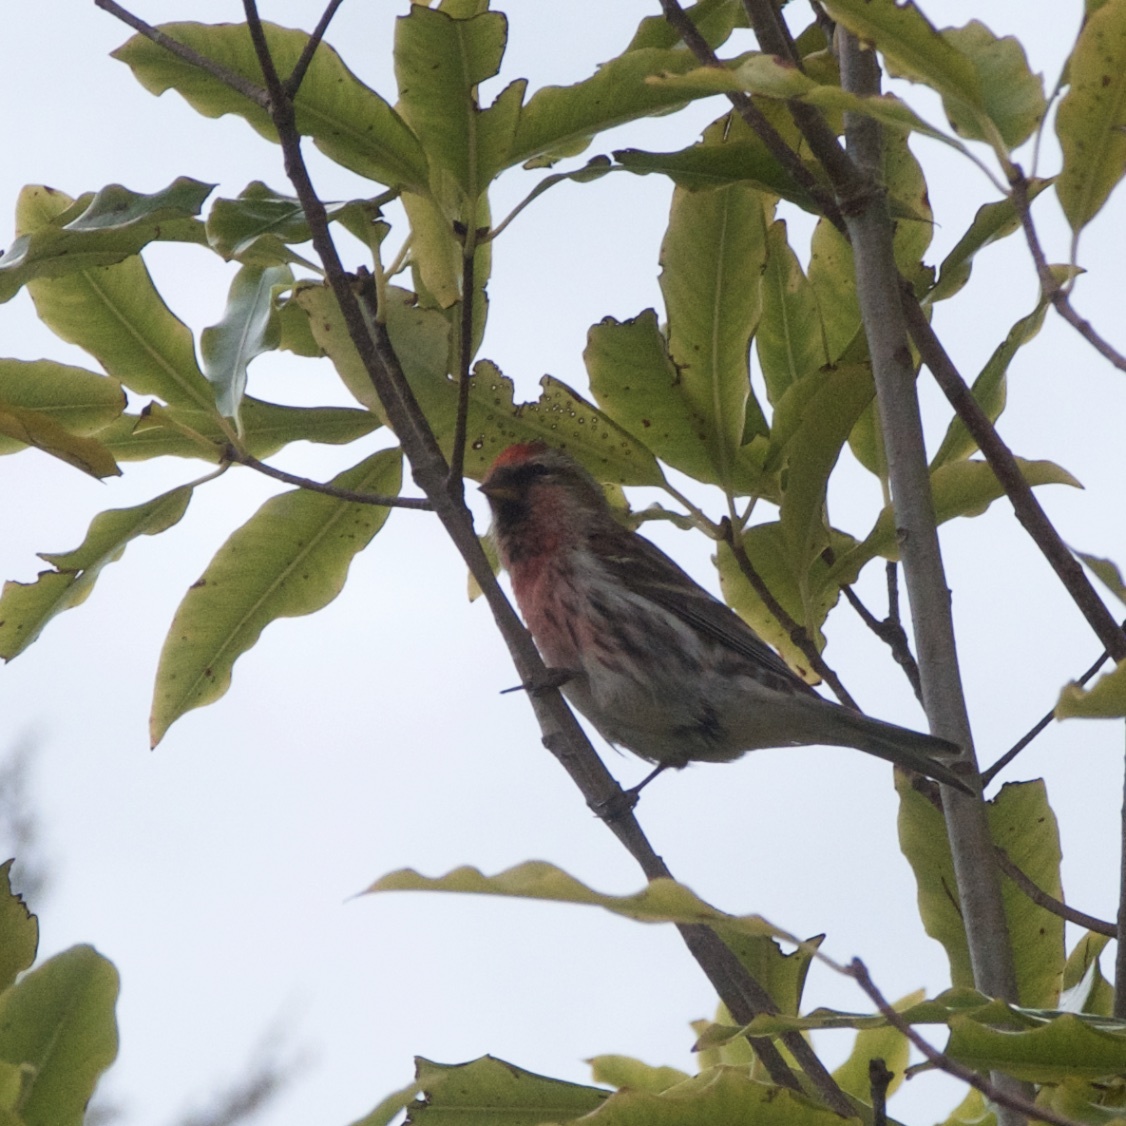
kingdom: Animalia
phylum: Chordata
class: Aves
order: Passeriformes
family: Fringillidae
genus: Acanthis
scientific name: Acanthis flammea
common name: Common redpoll
